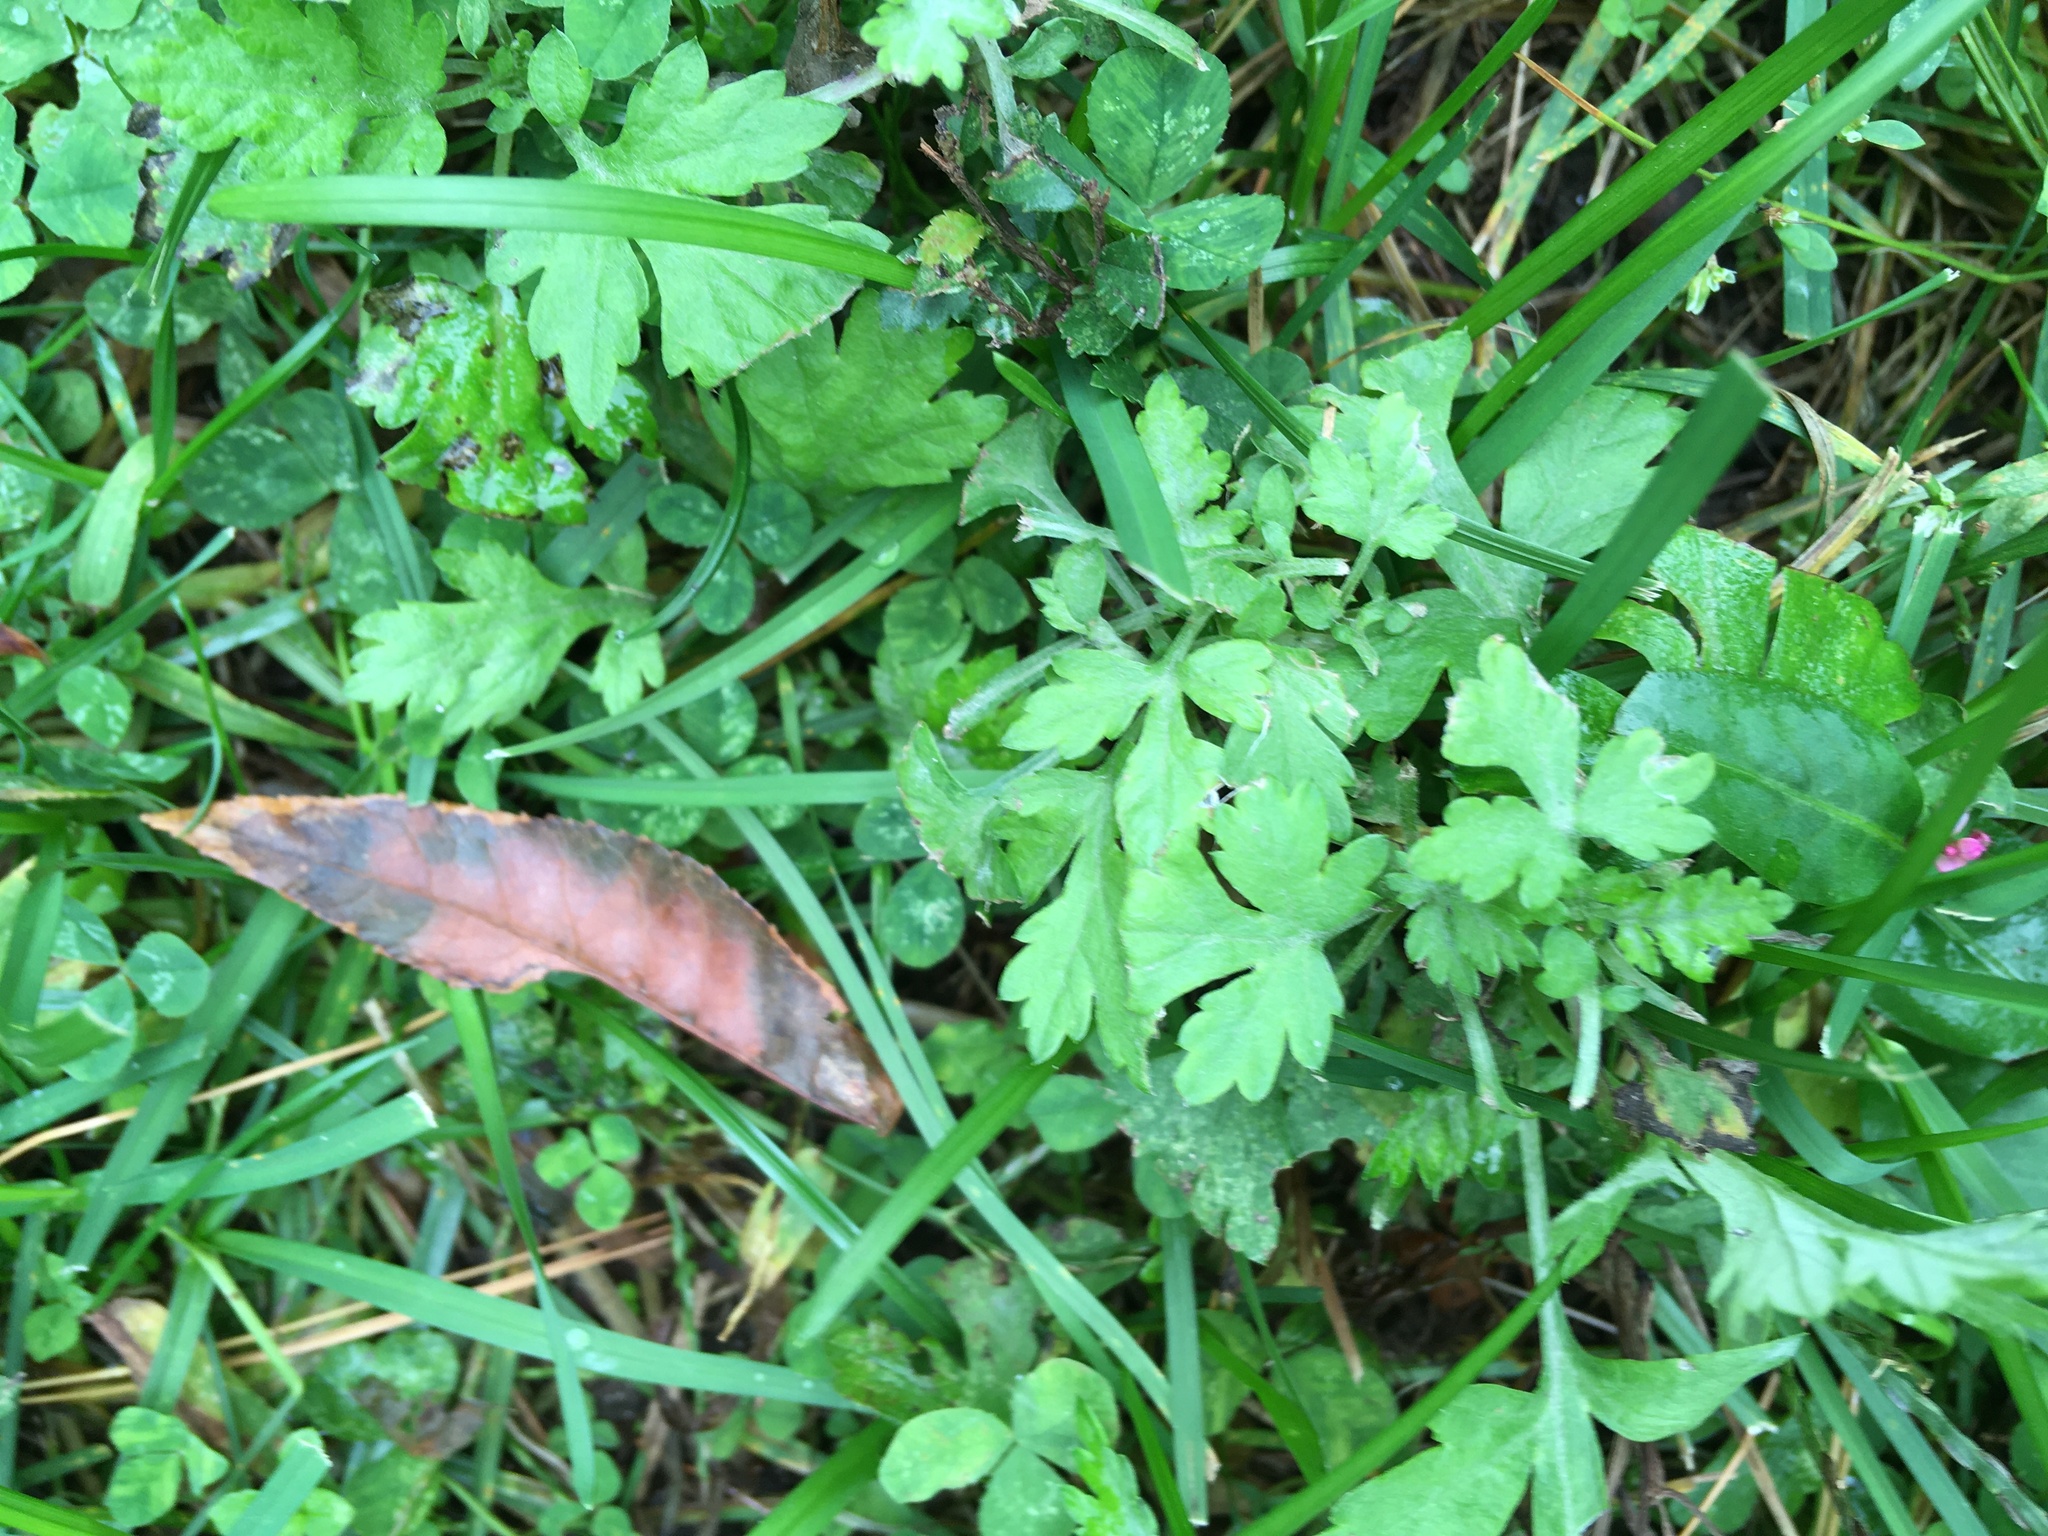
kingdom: Plantae
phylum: Tracheophyta
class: Magnoliopsida
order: Asterales
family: Asteraceae
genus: Artemisia
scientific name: Artemisia vulgaris
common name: Mugwort
